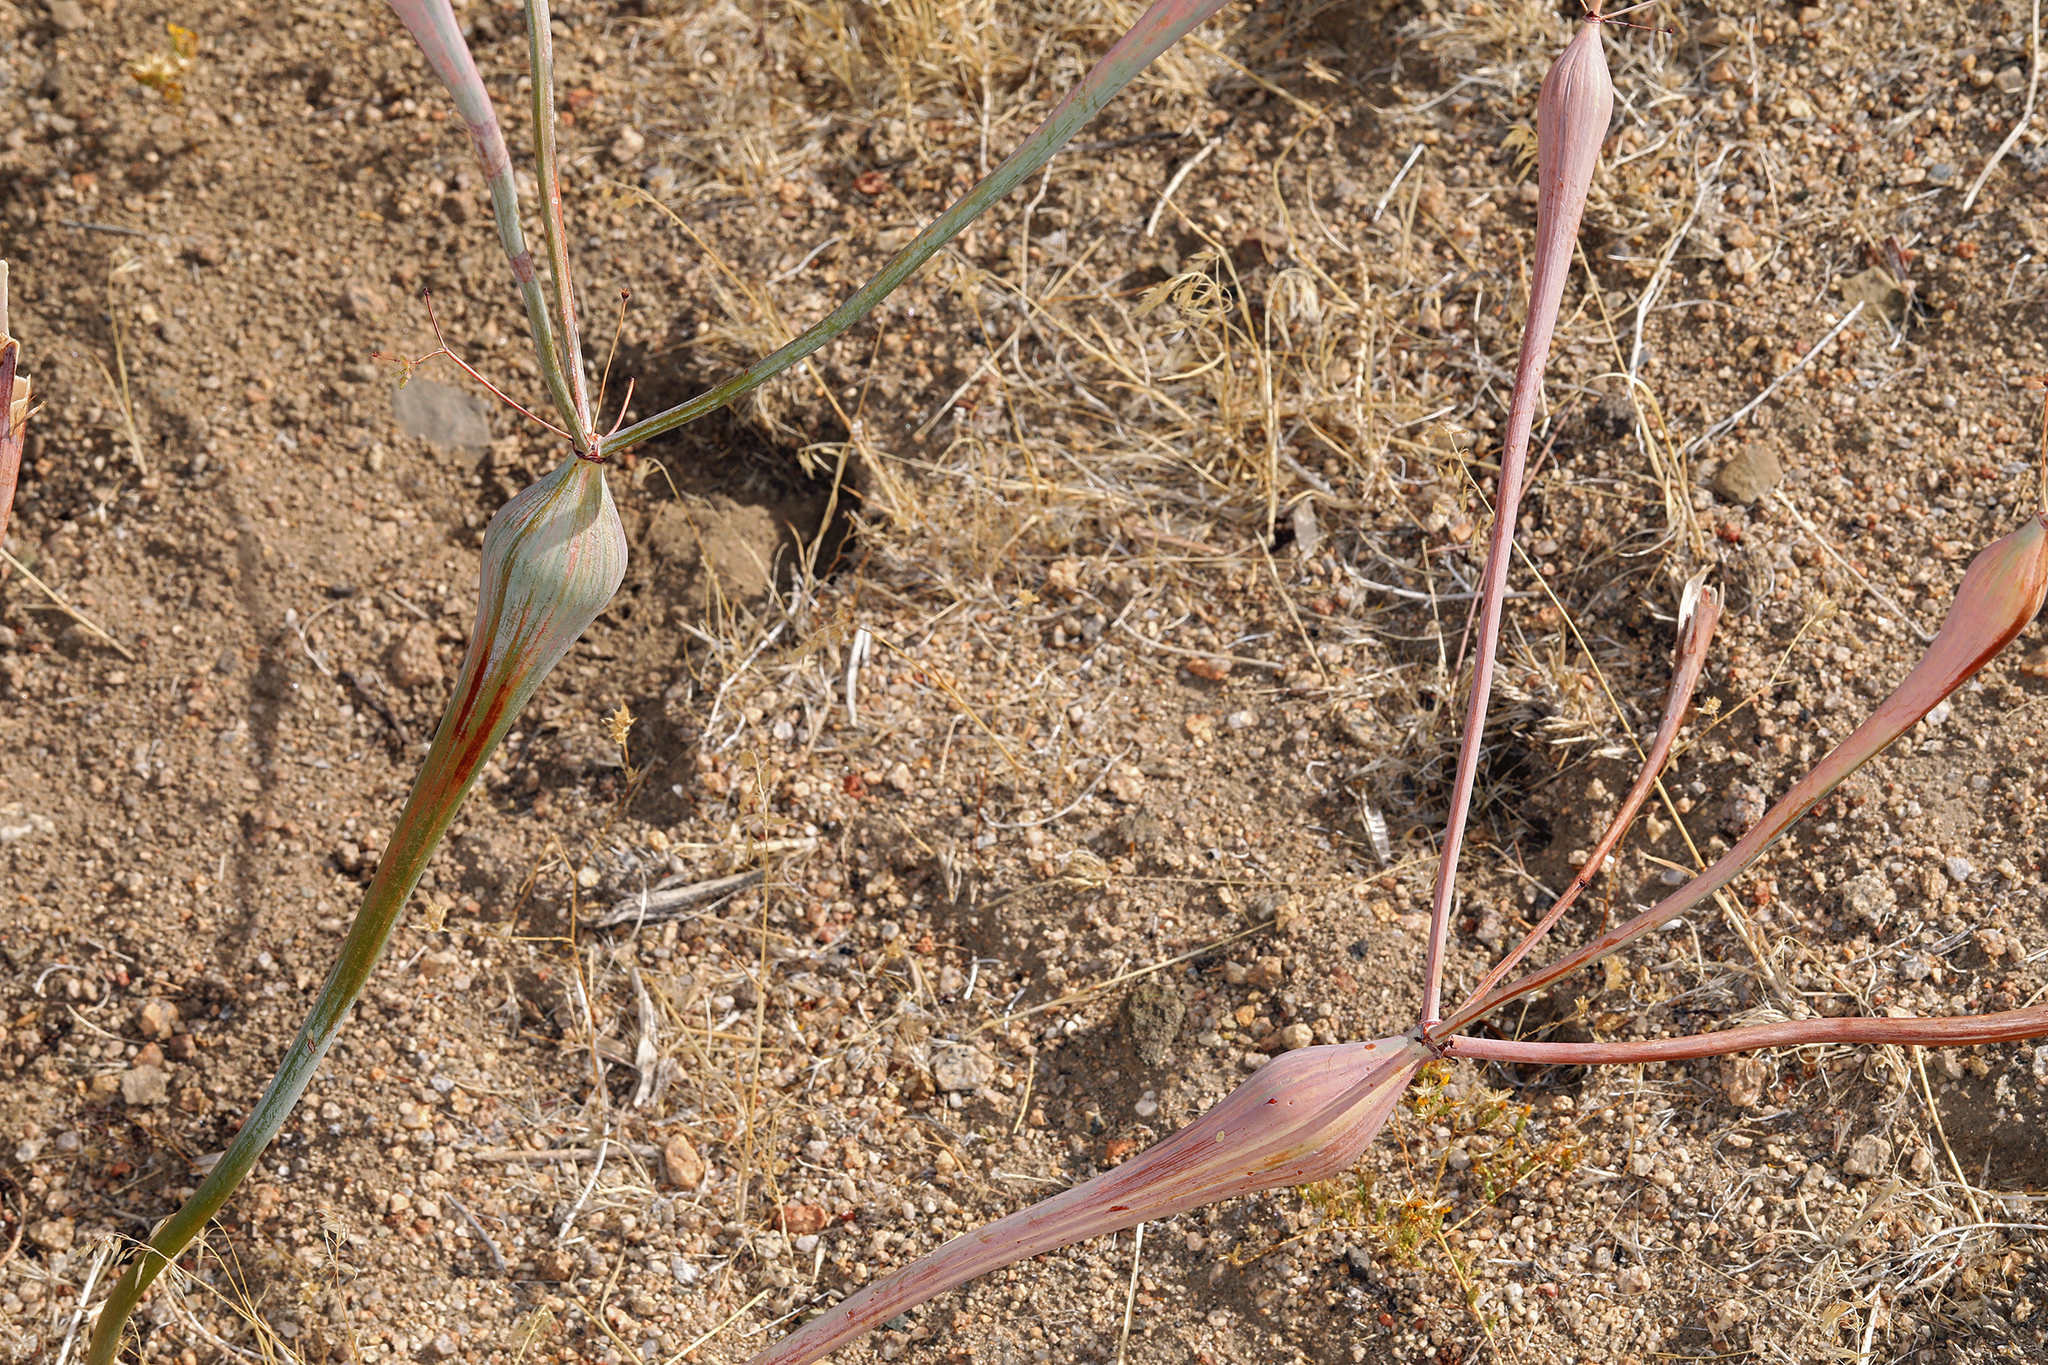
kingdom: Plantae
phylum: Tracheophyta
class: Magnoliopsida
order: Caryophyllales
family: Polygonaceae
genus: Eriogonum
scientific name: Eriogonum inflatum
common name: Desert trumpet
